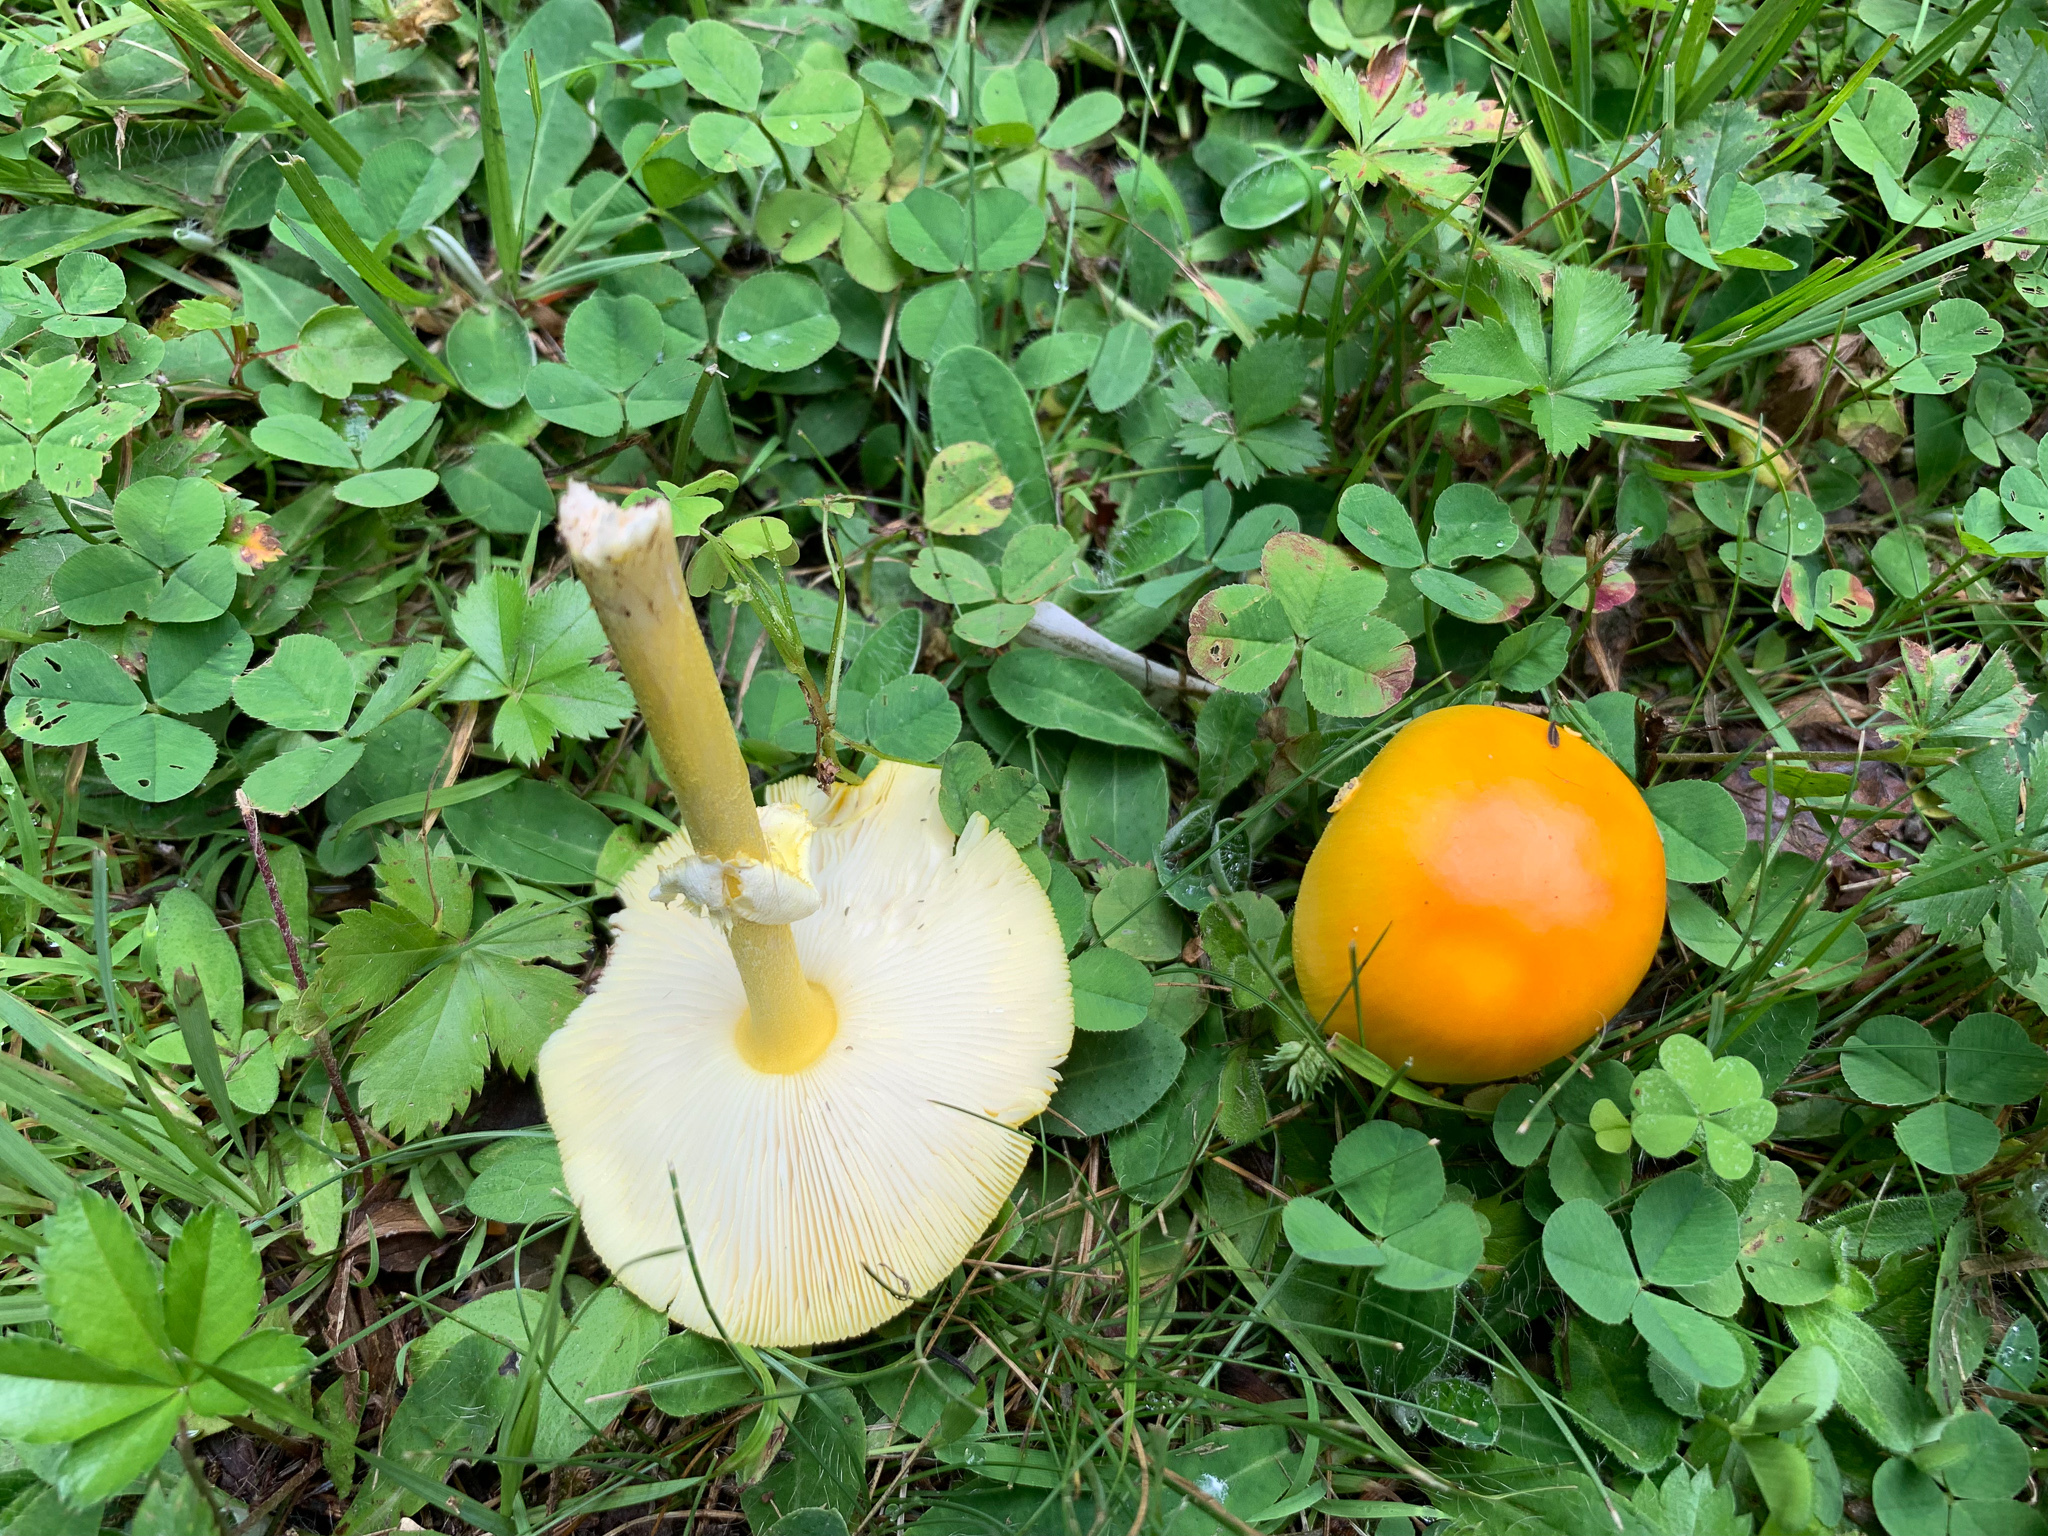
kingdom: Fungi
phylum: Basidiomycota
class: Agaricomycetes
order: Agaricales
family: Amanitaceae
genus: Amanita
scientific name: Amanita flavoconia
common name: Yellow patches
